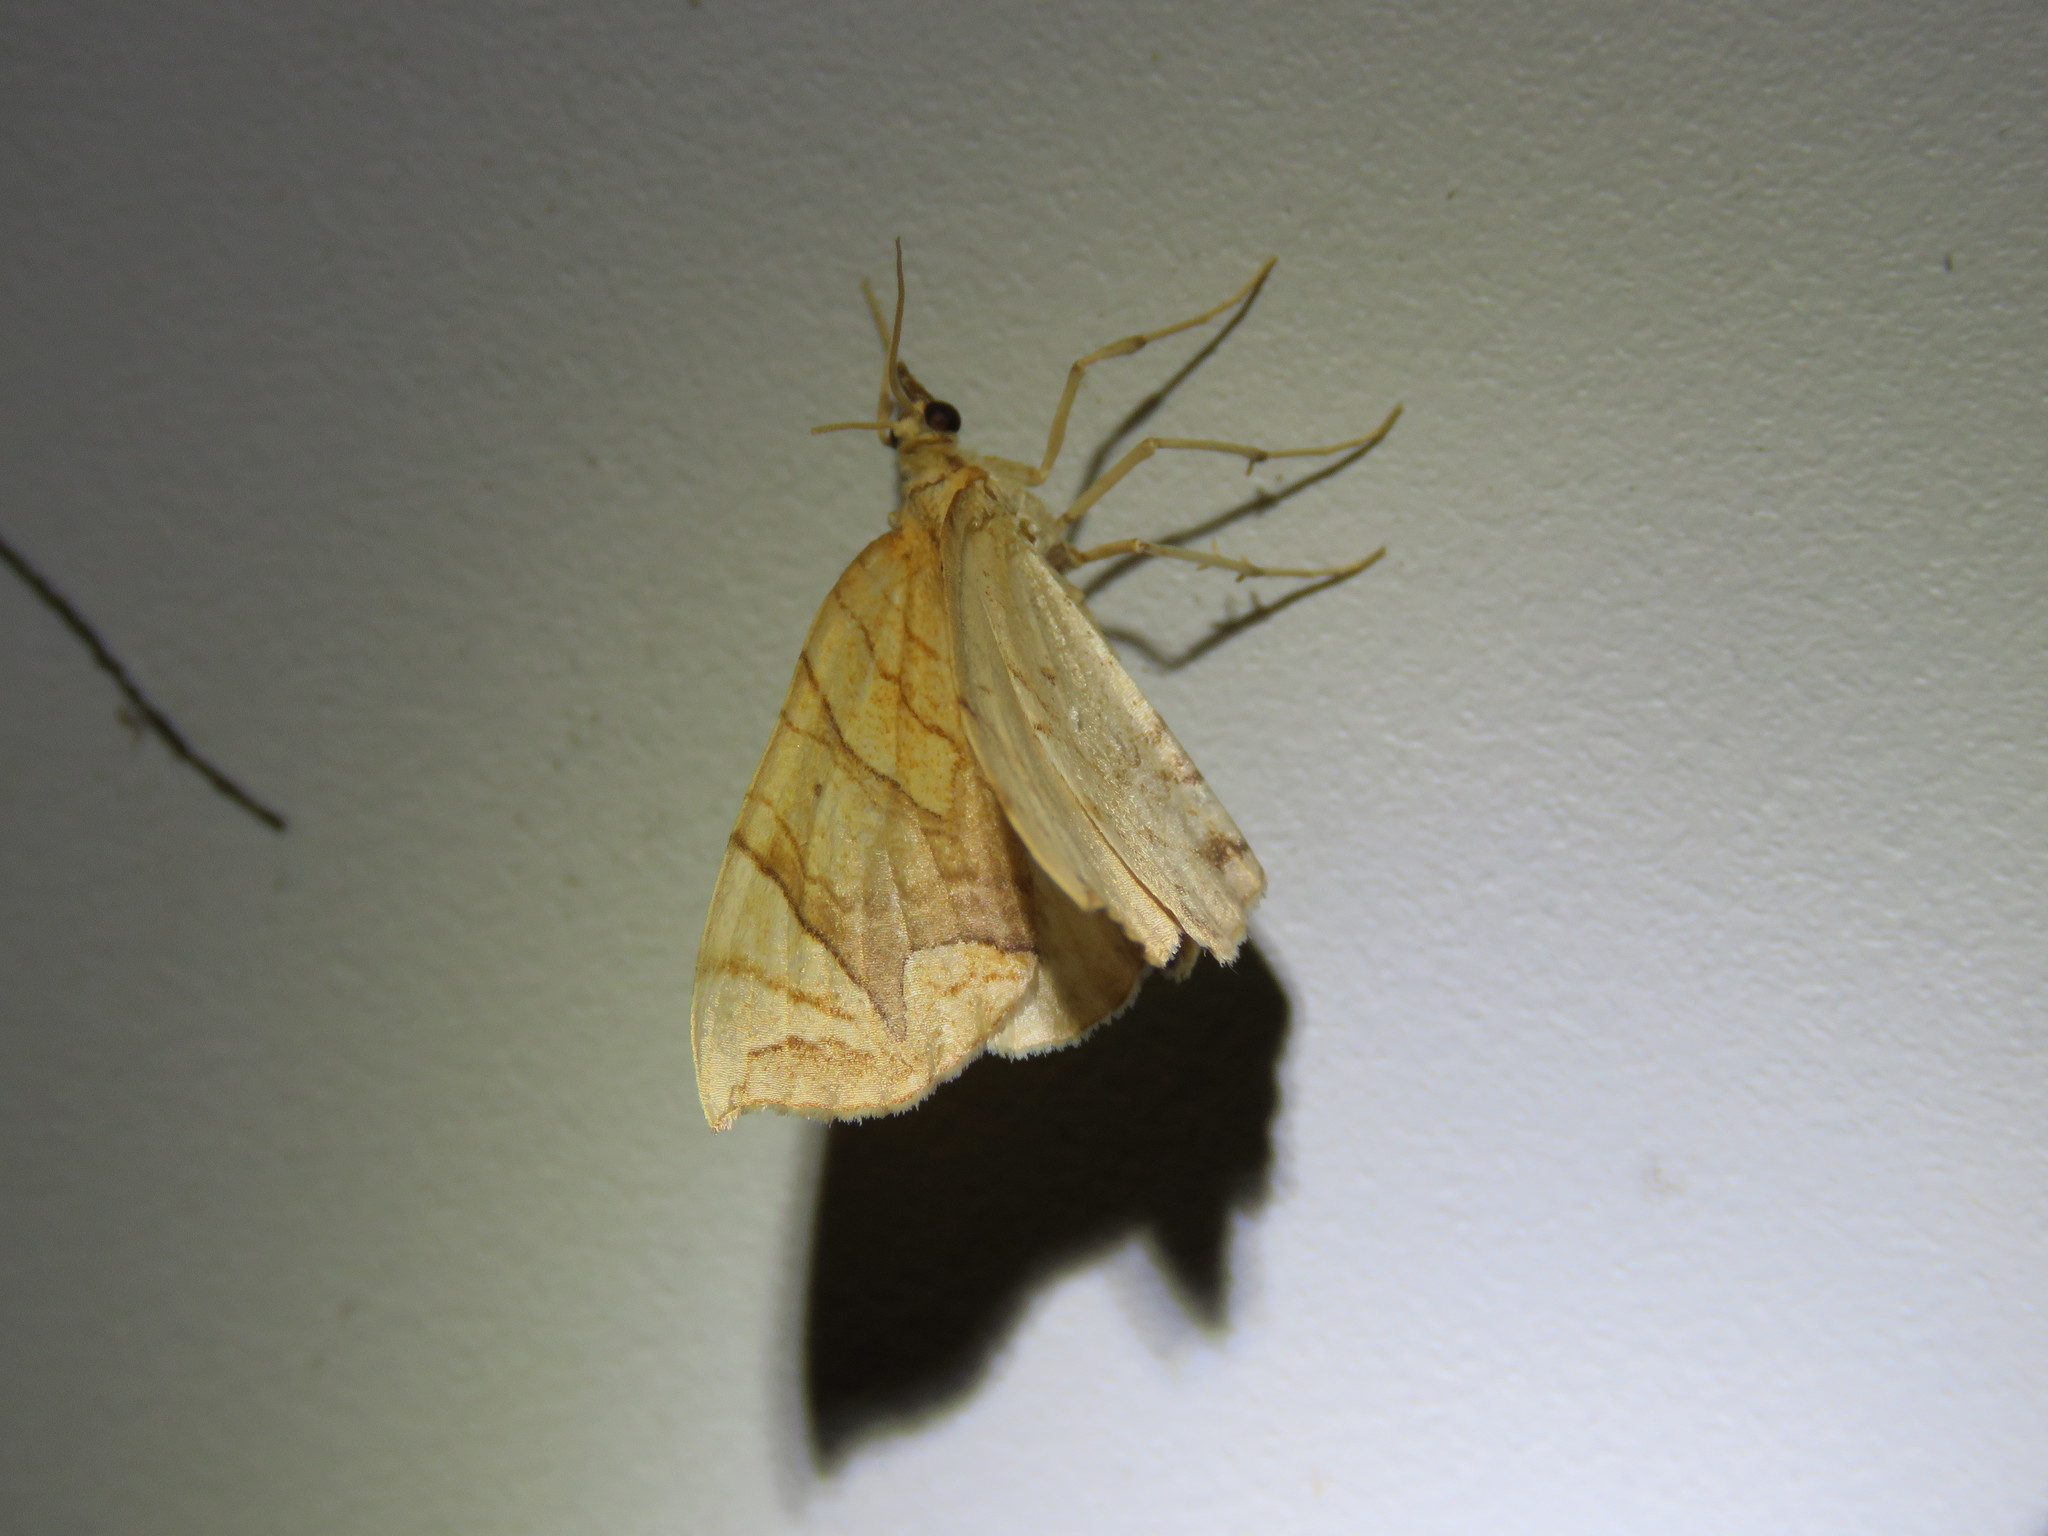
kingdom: Animalia
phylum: Arthropoda
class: Insecta
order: Lepidoptera
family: Geometridae
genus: Eulithis
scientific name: Eulithis
